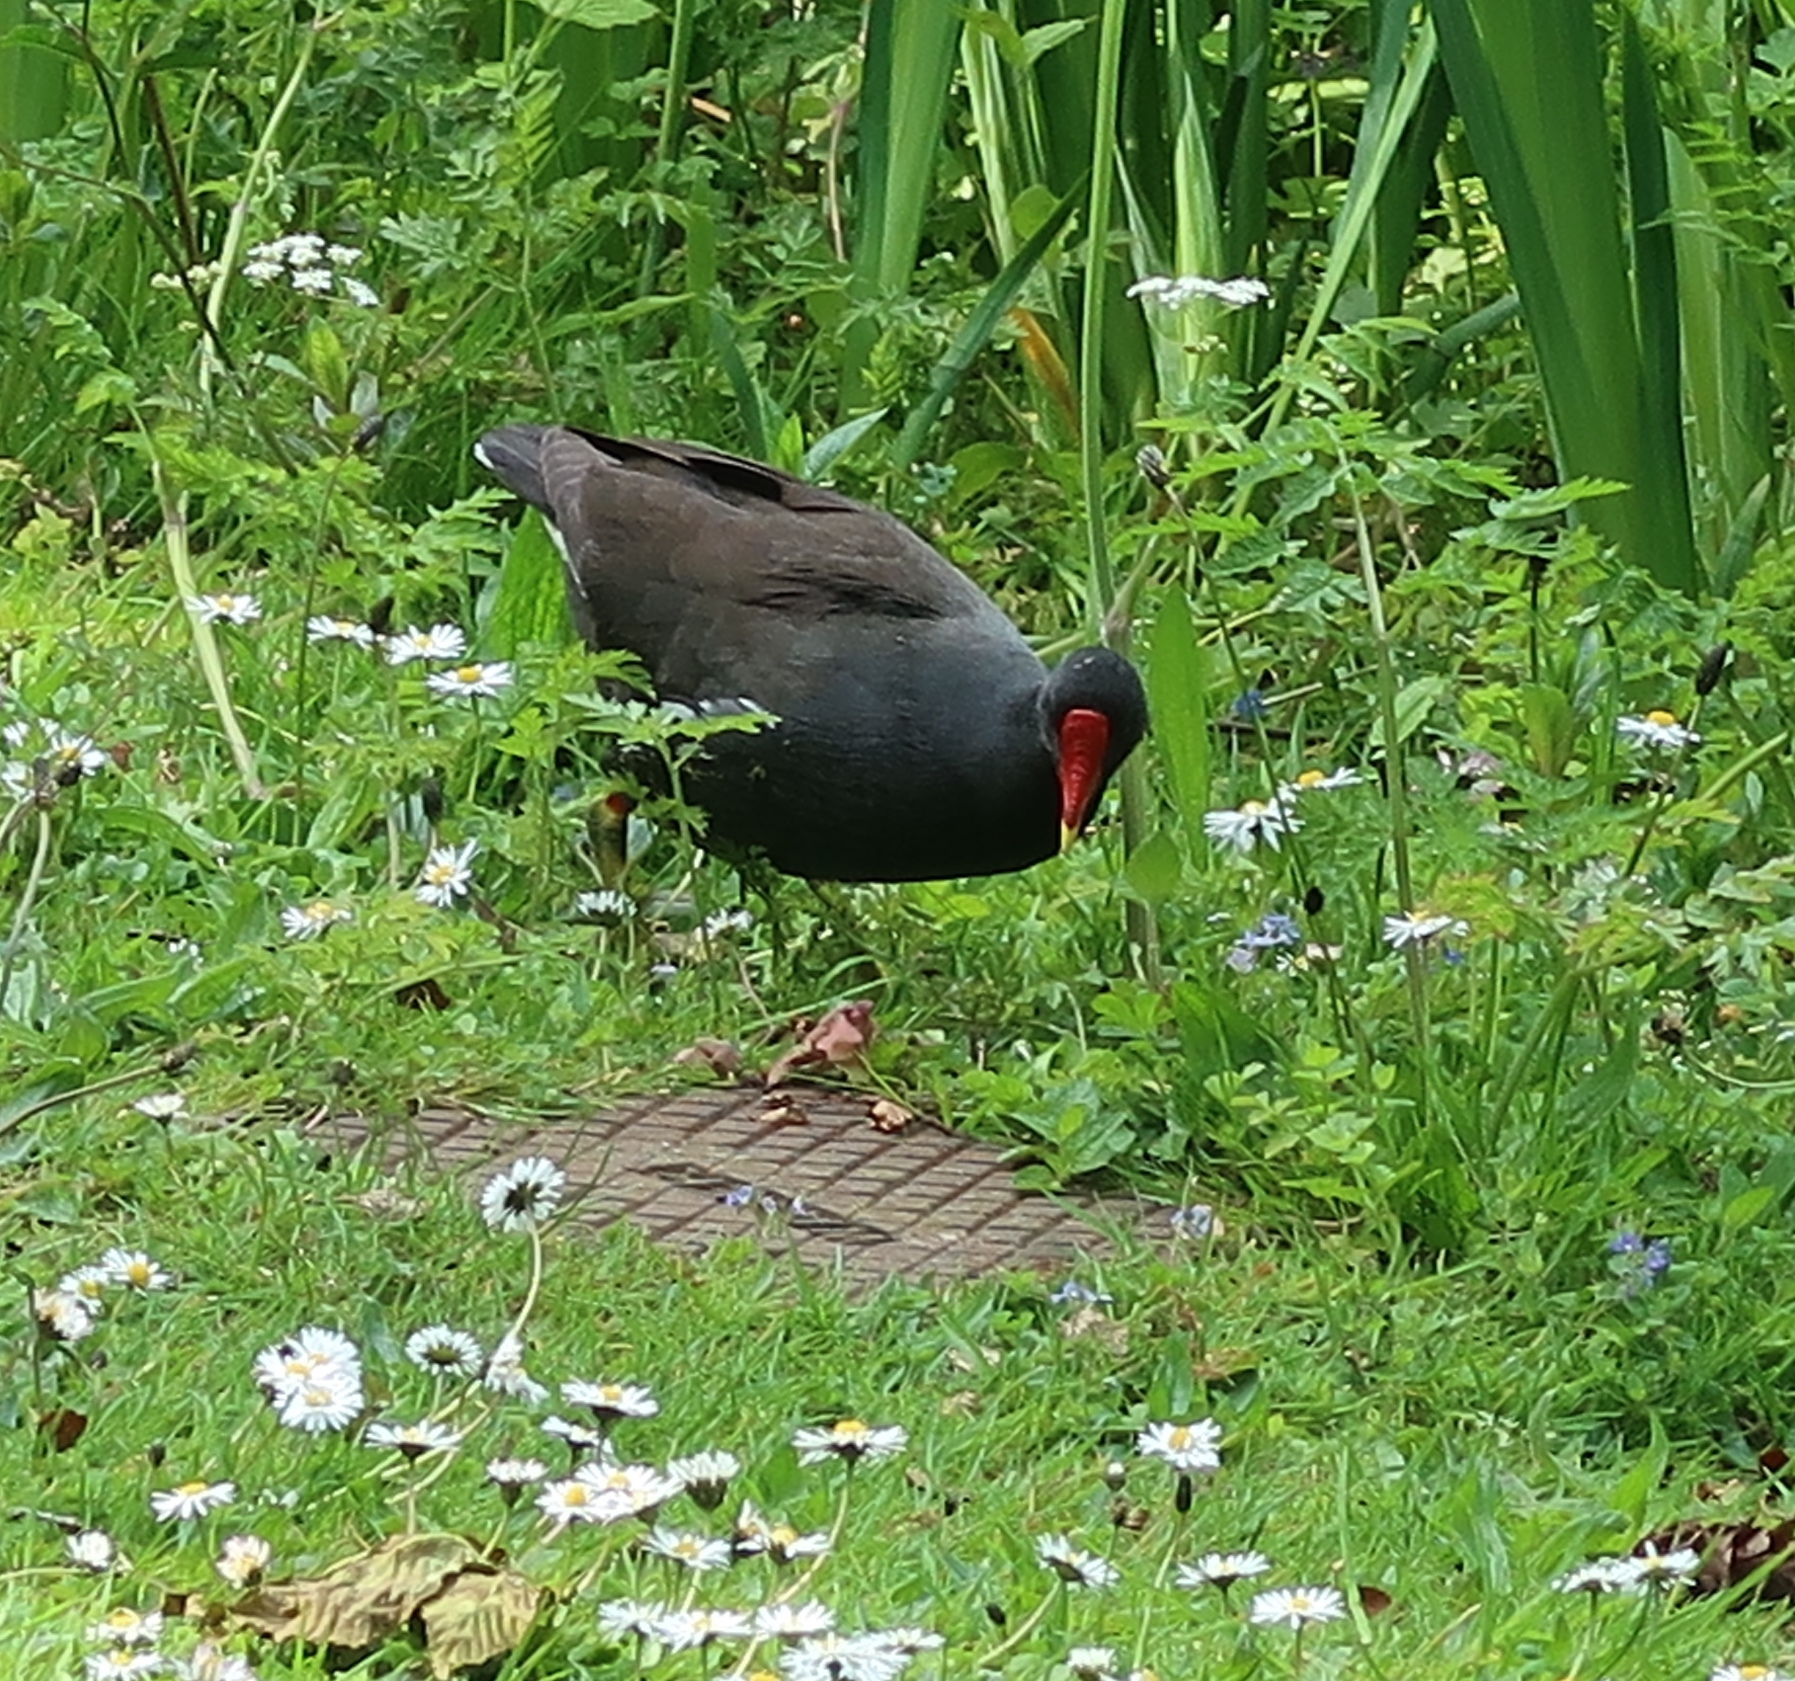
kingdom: Animalia
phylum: Chordata
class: Aves
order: Gruiformes
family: Rallidae
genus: Gallinula
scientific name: Gallinula chloropus
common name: Common moorhen
